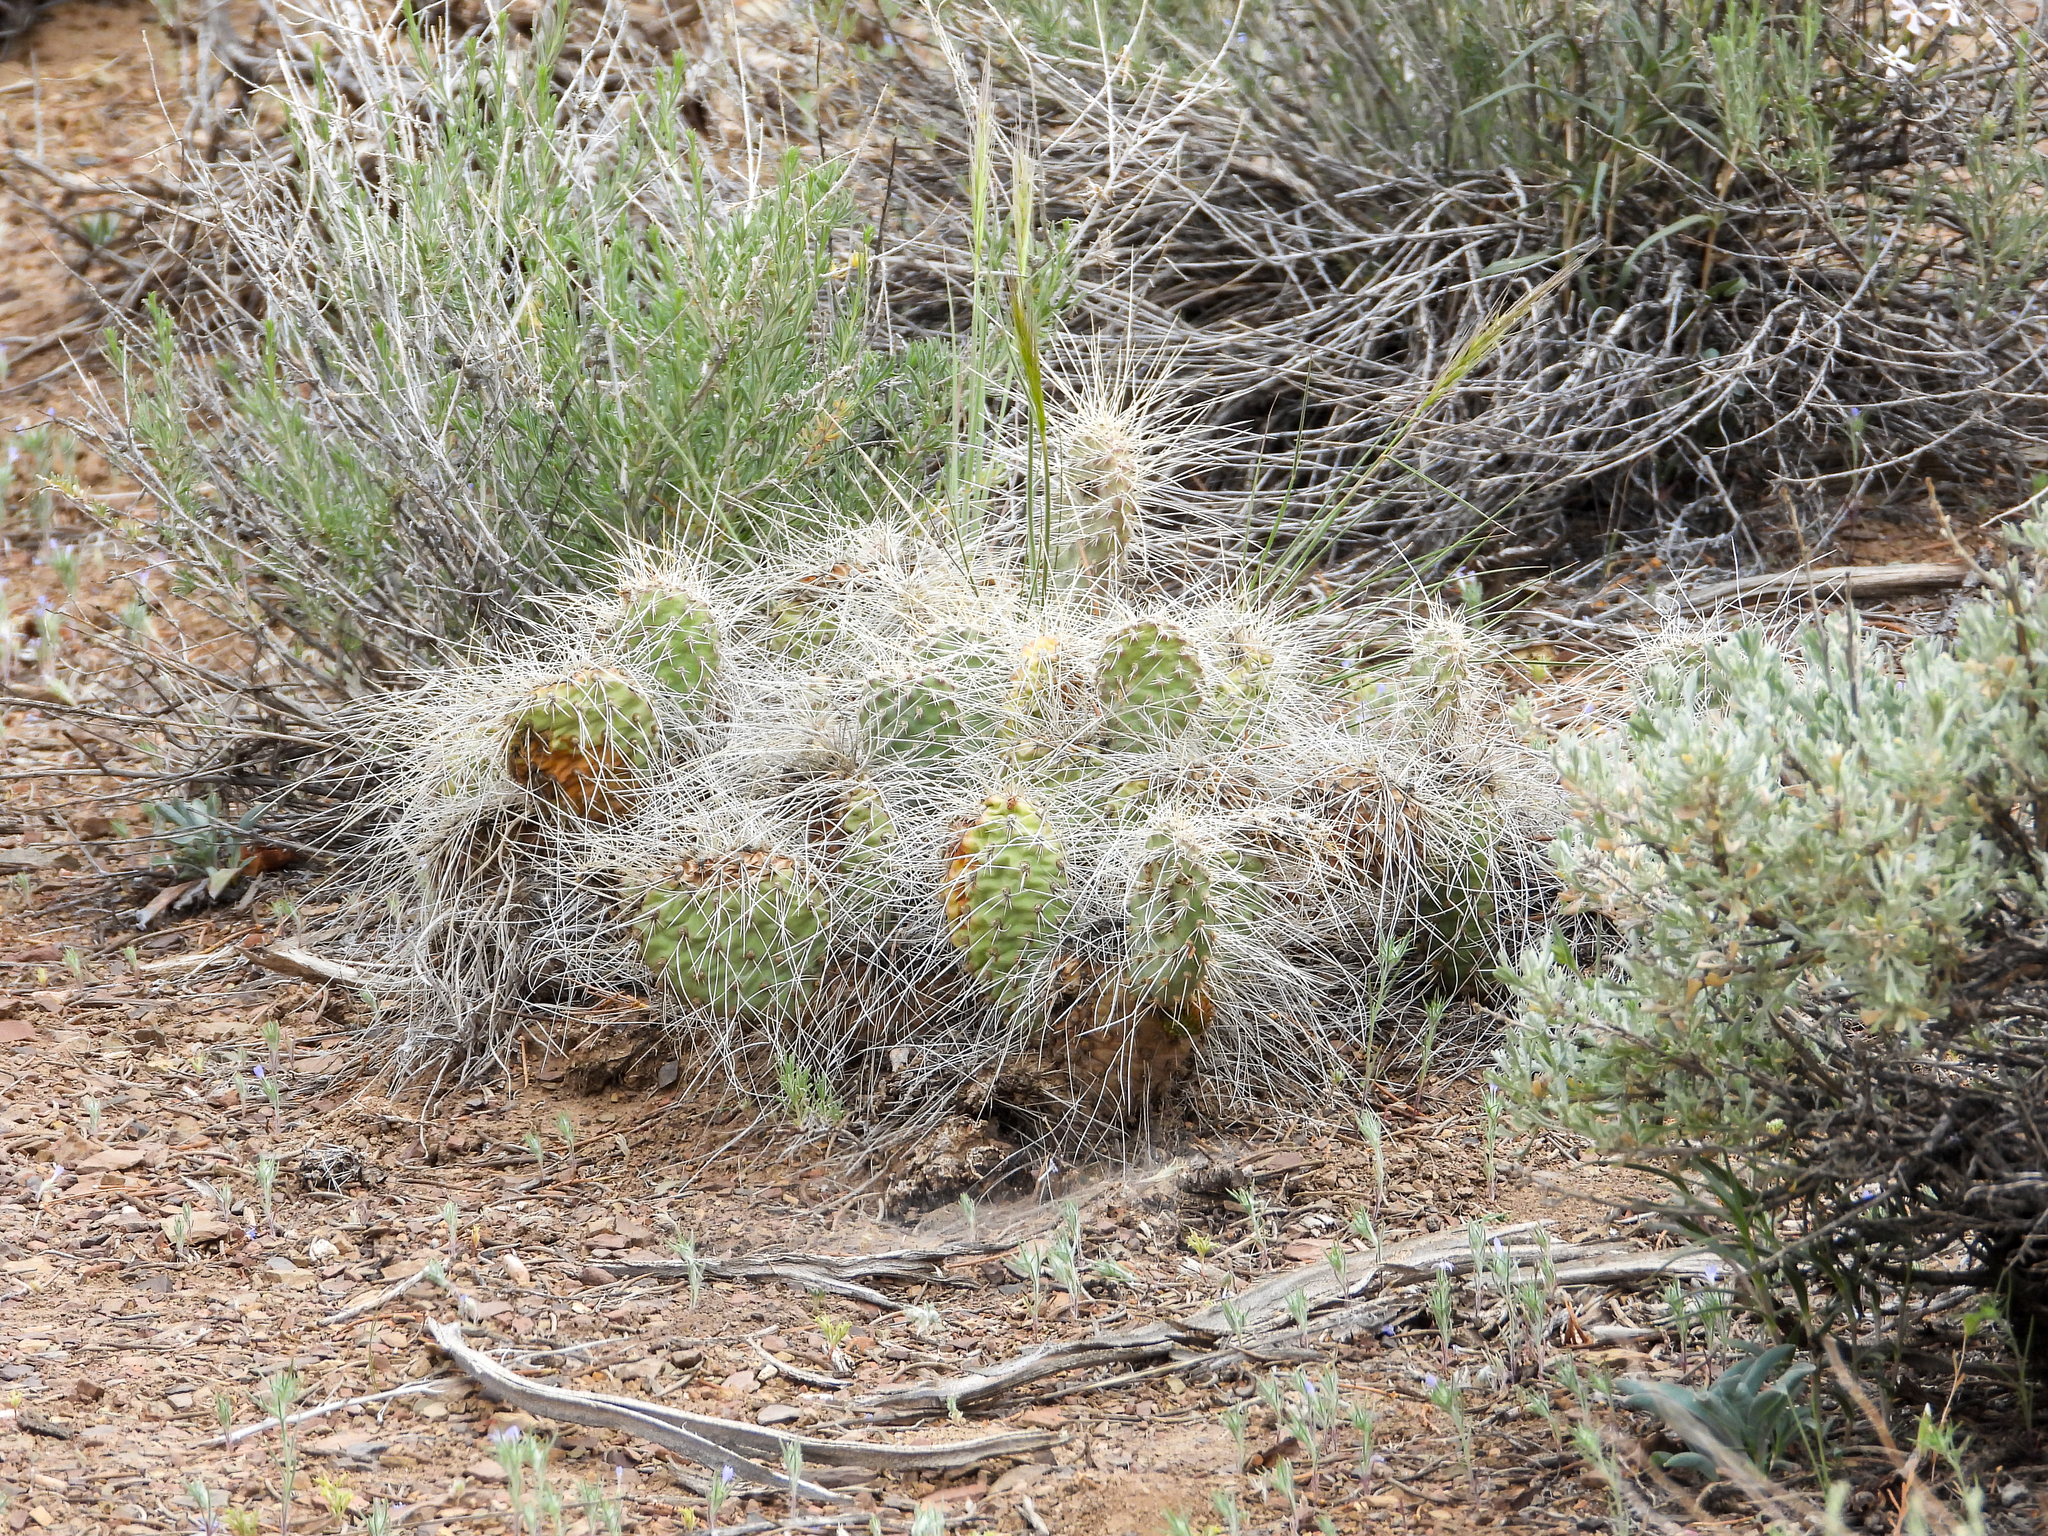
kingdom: Plantae
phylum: Tracheophyta
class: Magnoliopsida
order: Caryophyllales
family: Cactaceae
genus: Opuntia
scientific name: Opuntia polyacantha
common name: Plains prickly-pear
